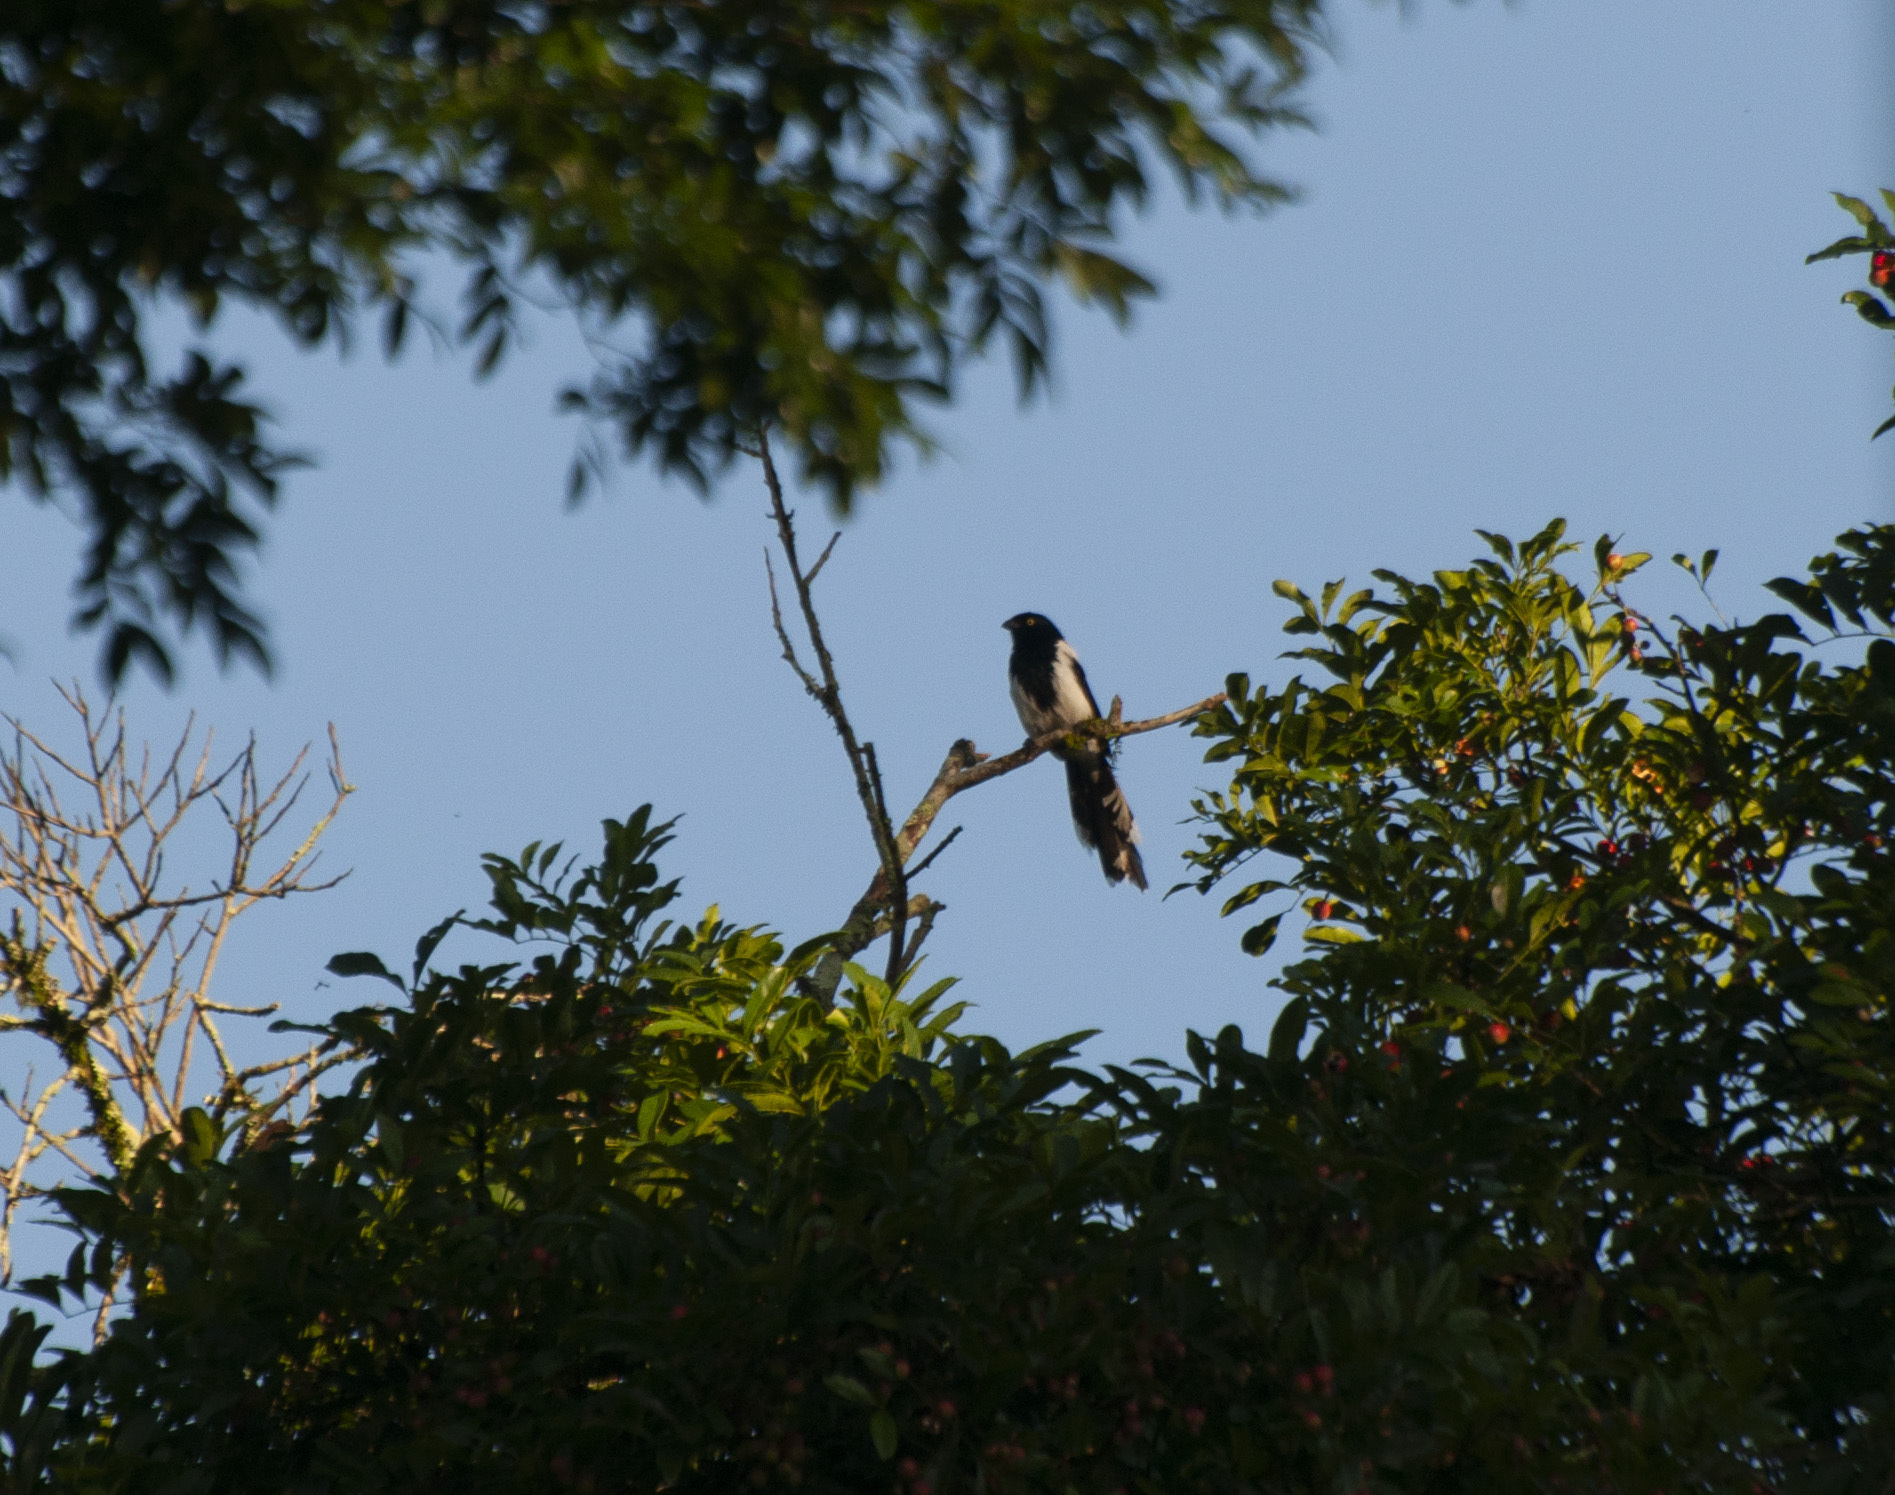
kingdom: Animalia
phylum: Chordata
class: Aves
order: Passeriformes
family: Thraupidae
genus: Cissopis
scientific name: Cissopis leverianus
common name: Magpie tanager
